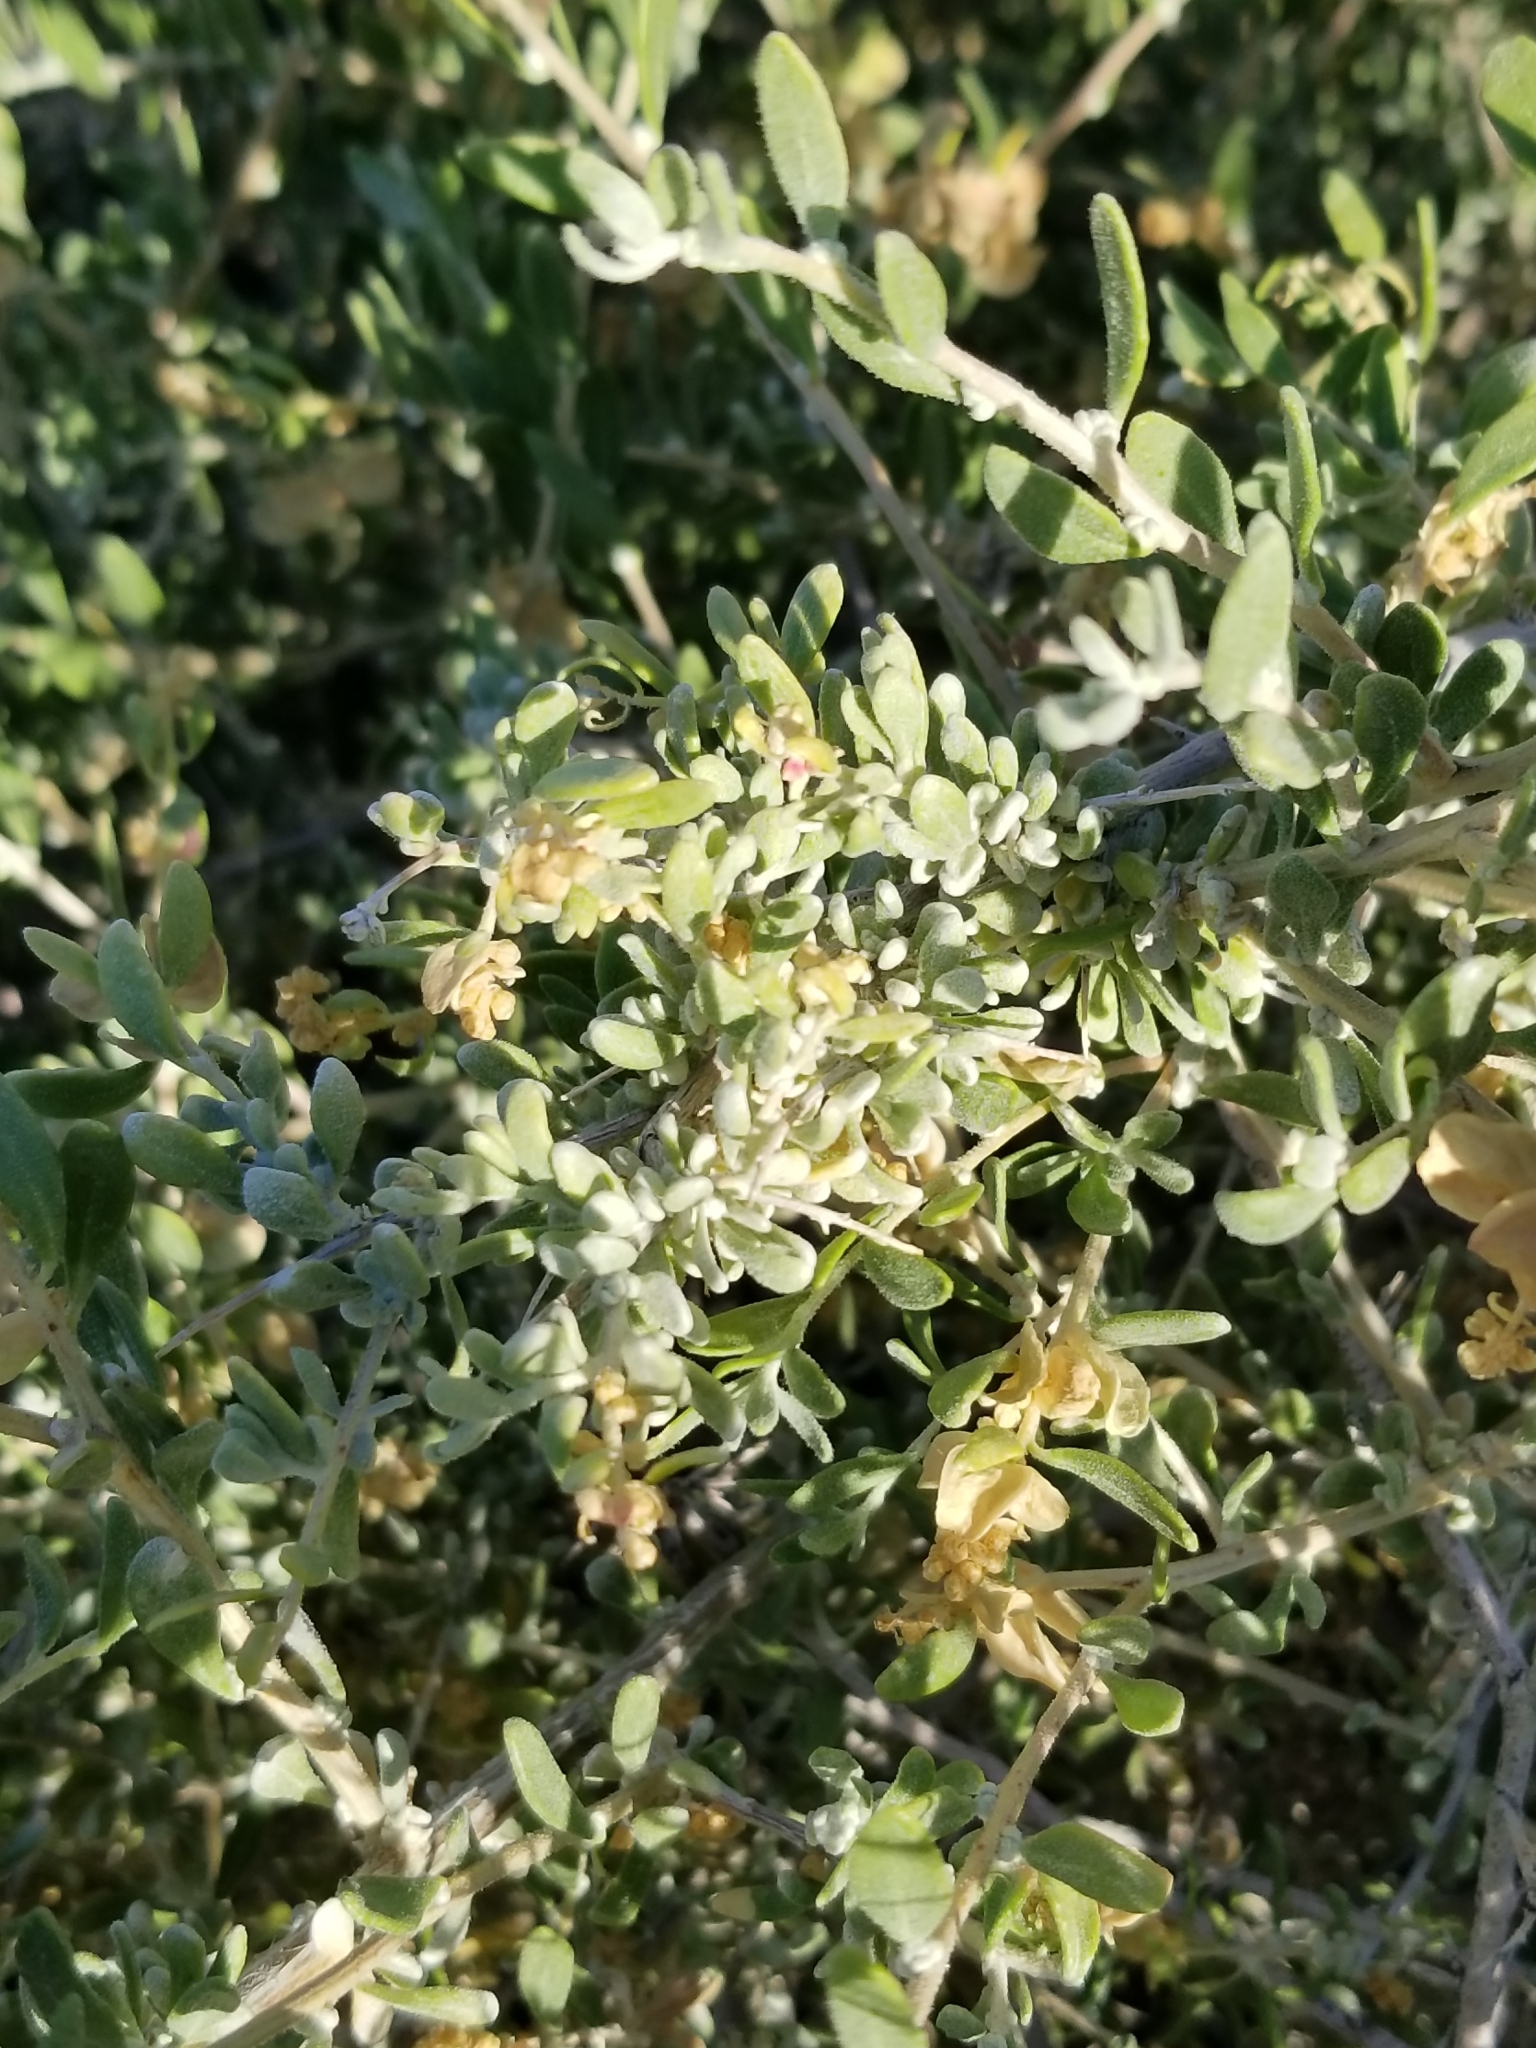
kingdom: Plantae
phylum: Tracheophyta
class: Magnoliopsida
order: Caryophyllales
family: Amaranthaceae
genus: Grayia
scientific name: Grayia spinosa
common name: Spiny hopsage
